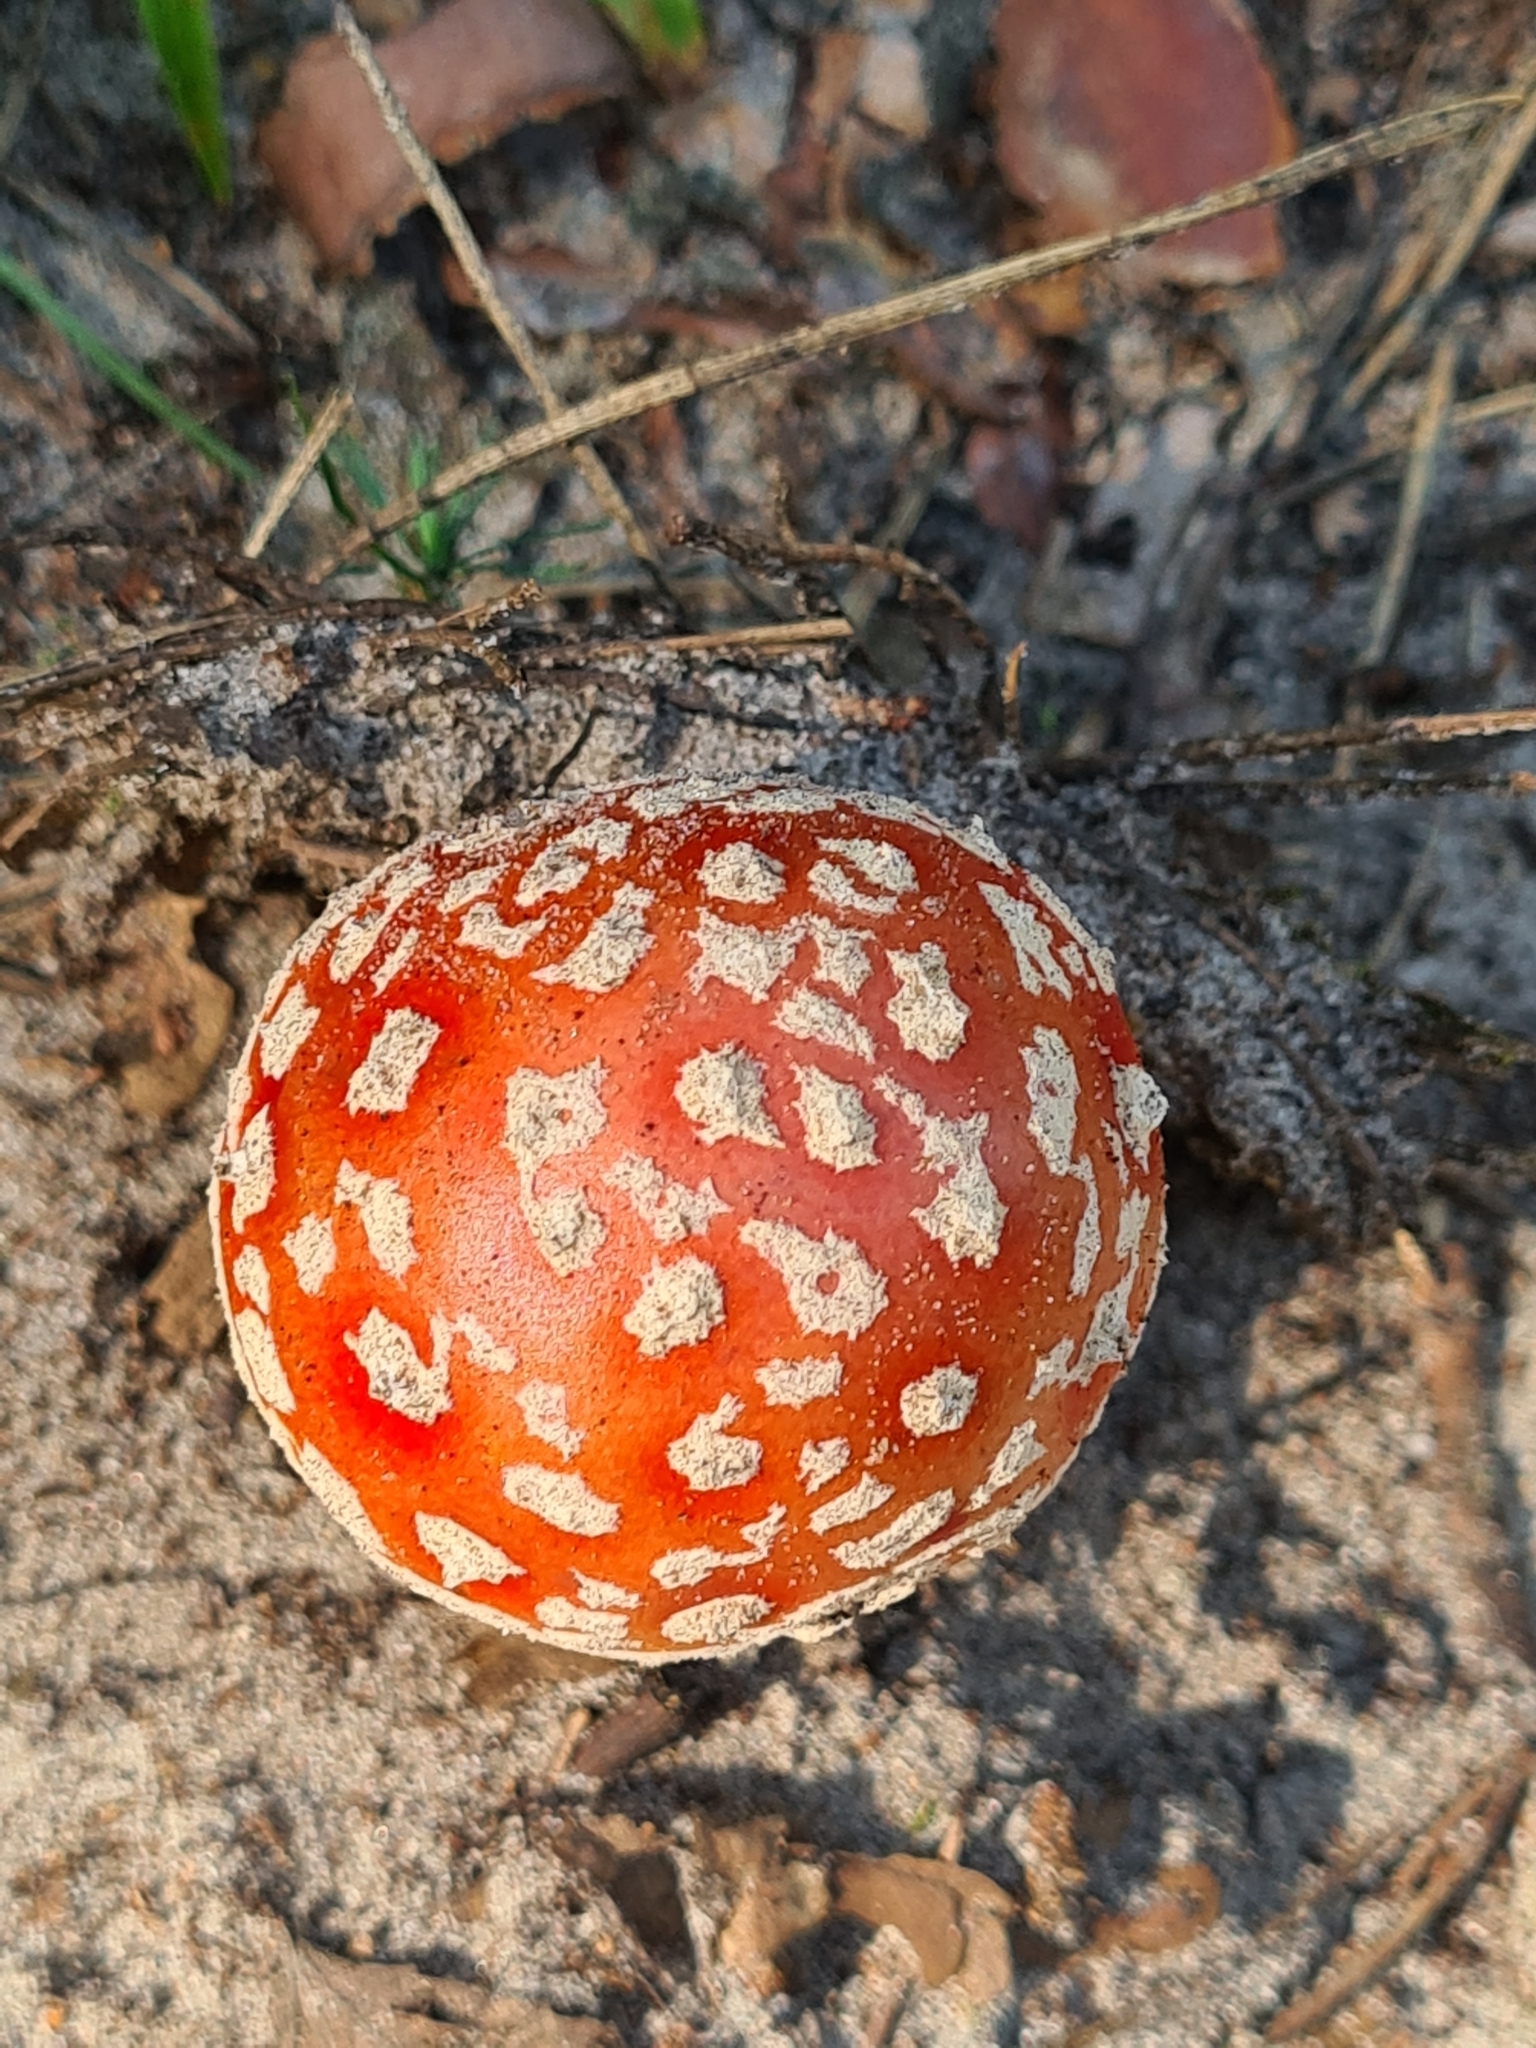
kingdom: Fungi
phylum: Basidiomycota
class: Agaricomycetes
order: Agaricales
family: Amanitaceae
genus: Amanita
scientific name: Amanita muscaria
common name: Fly agaric
